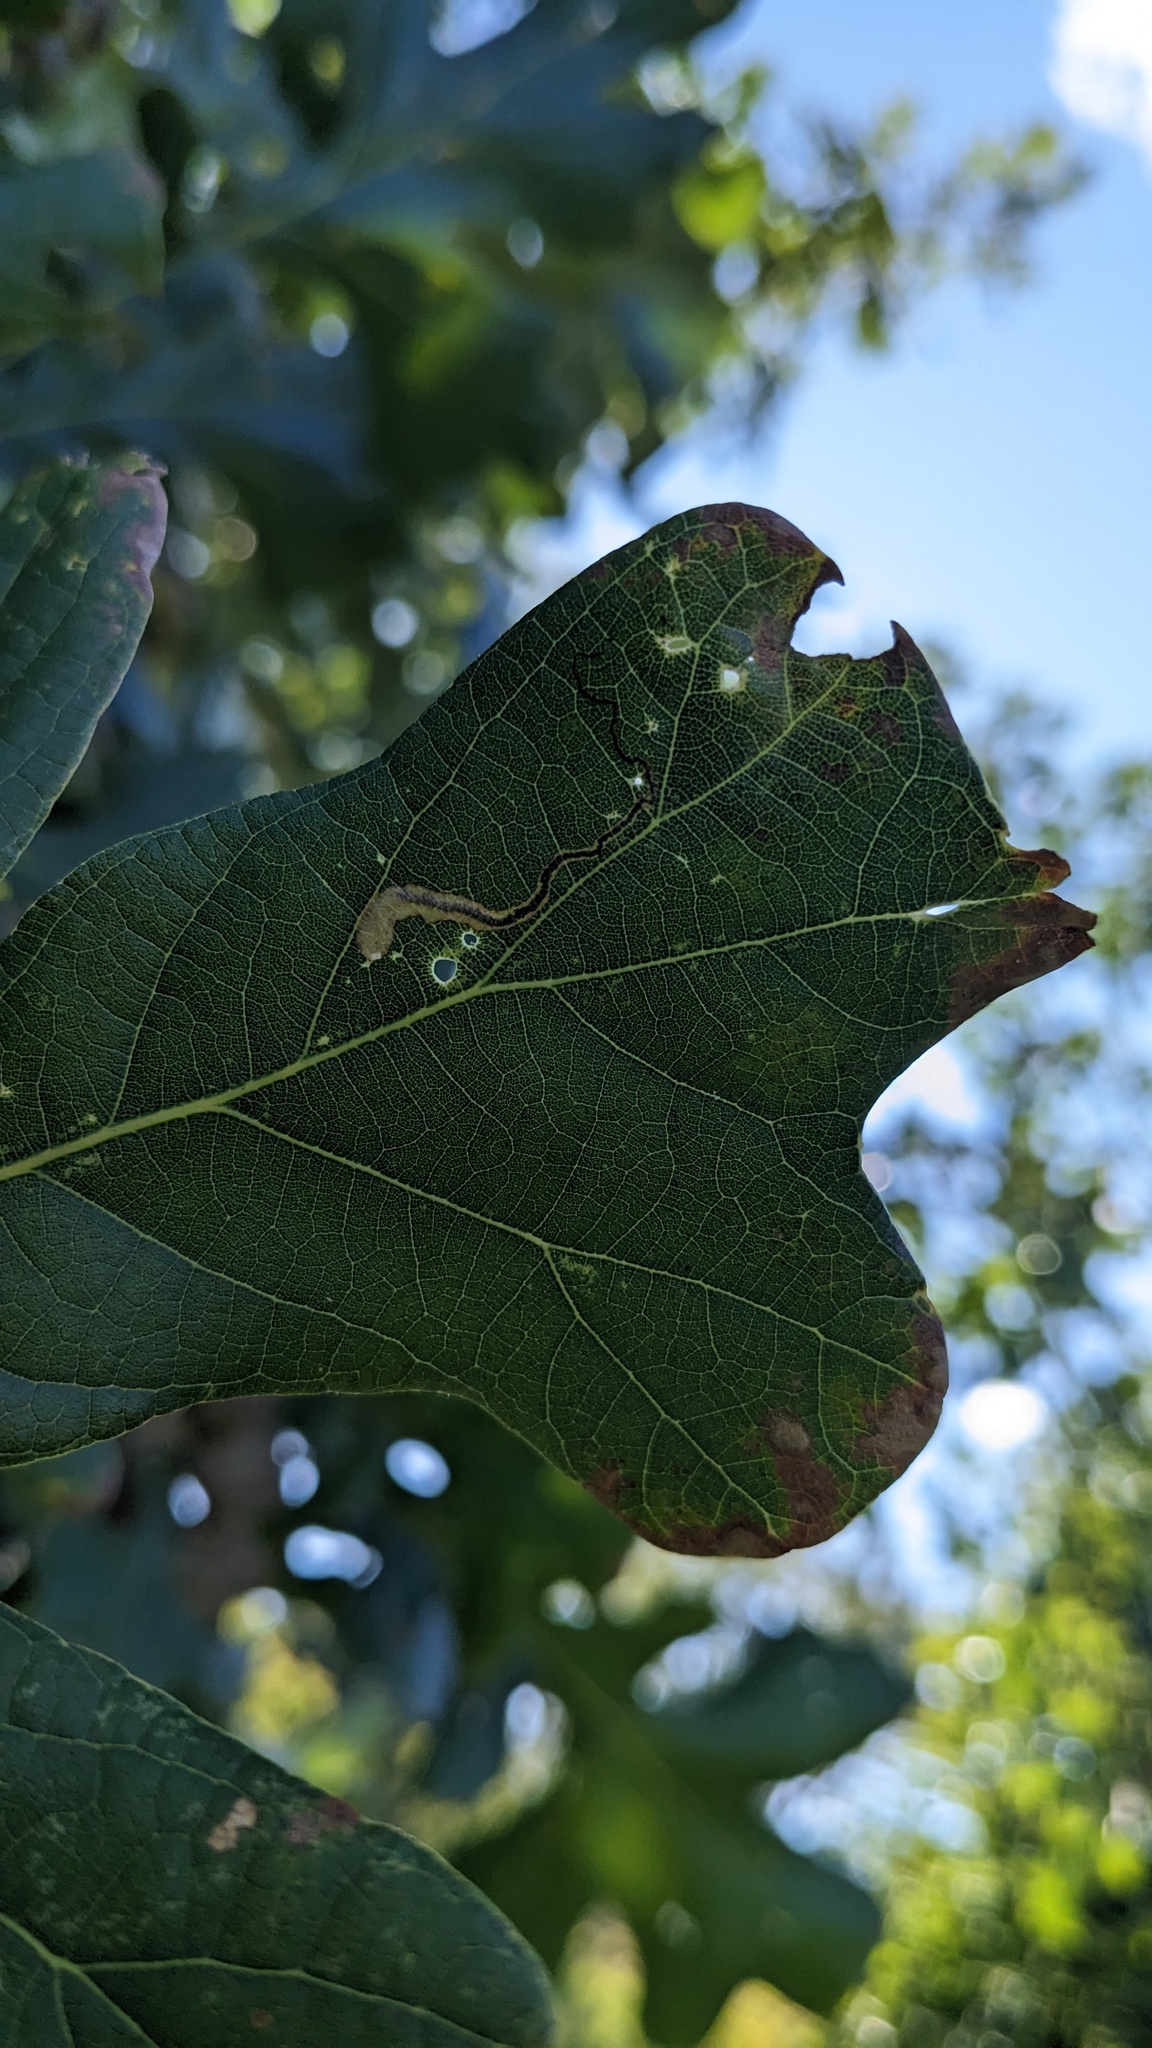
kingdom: Animalia
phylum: Arthropoda
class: Insecta
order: Lepidoptera
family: Nepticulidae
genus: Stigmella
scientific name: Stigmella
